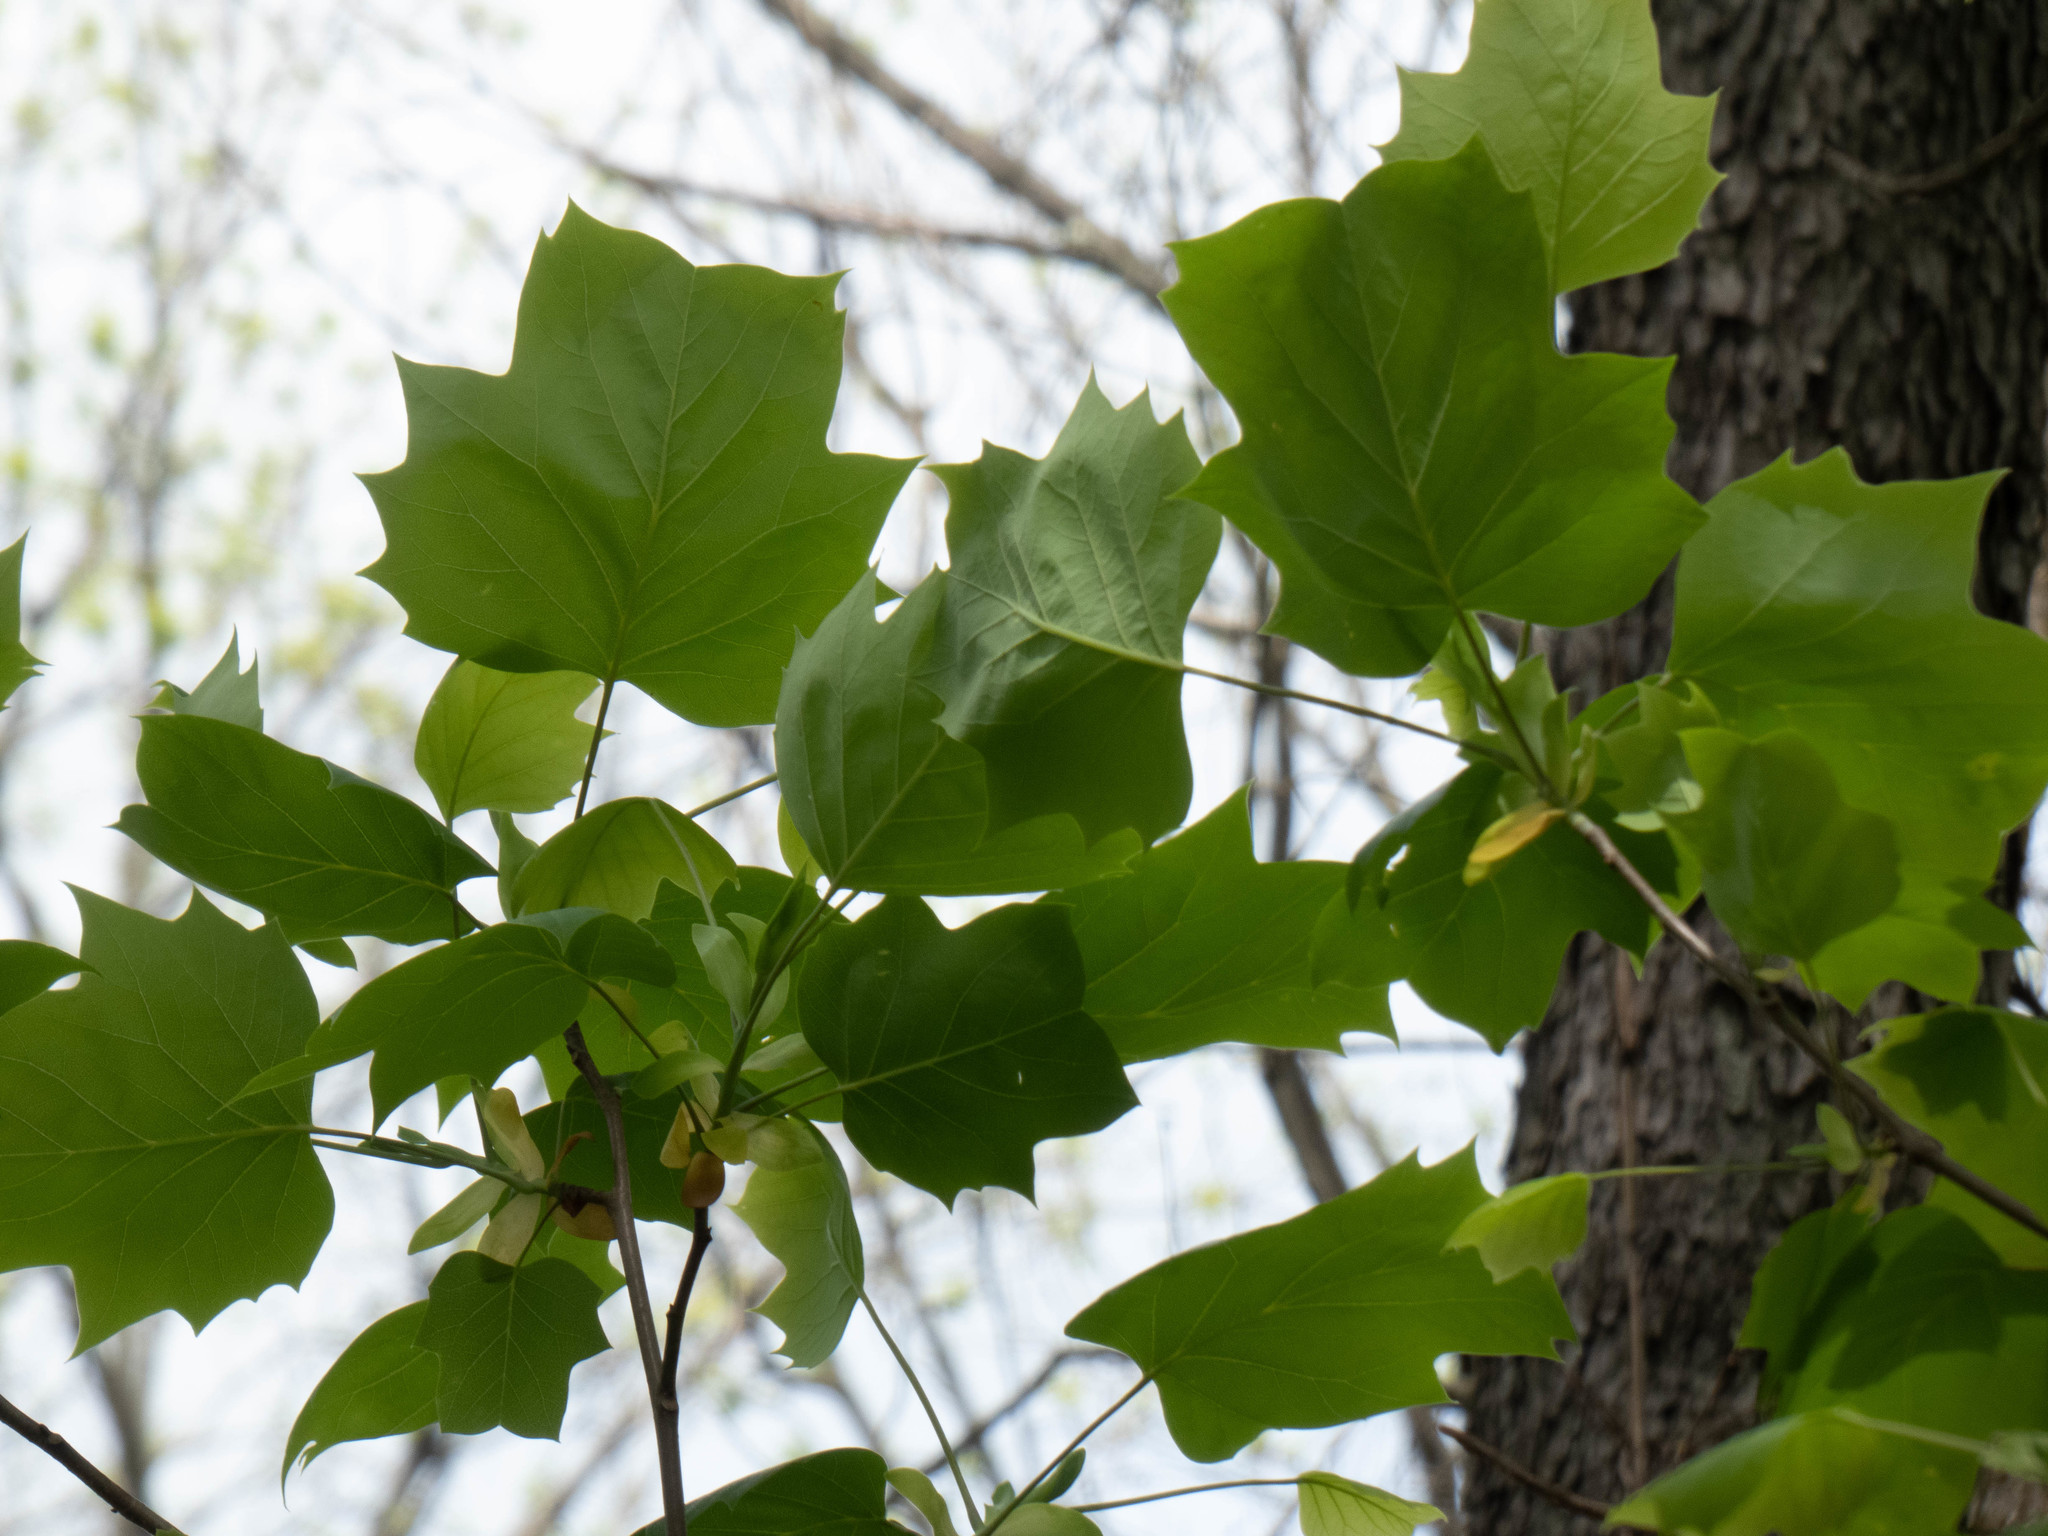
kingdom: Plantae
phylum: Tracheophyta
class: Magnoliopsida
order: Magnoliales
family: Magnoliaceae
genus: Liriodendron
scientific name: Liriodendron tulipifera
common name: Tulip tree
